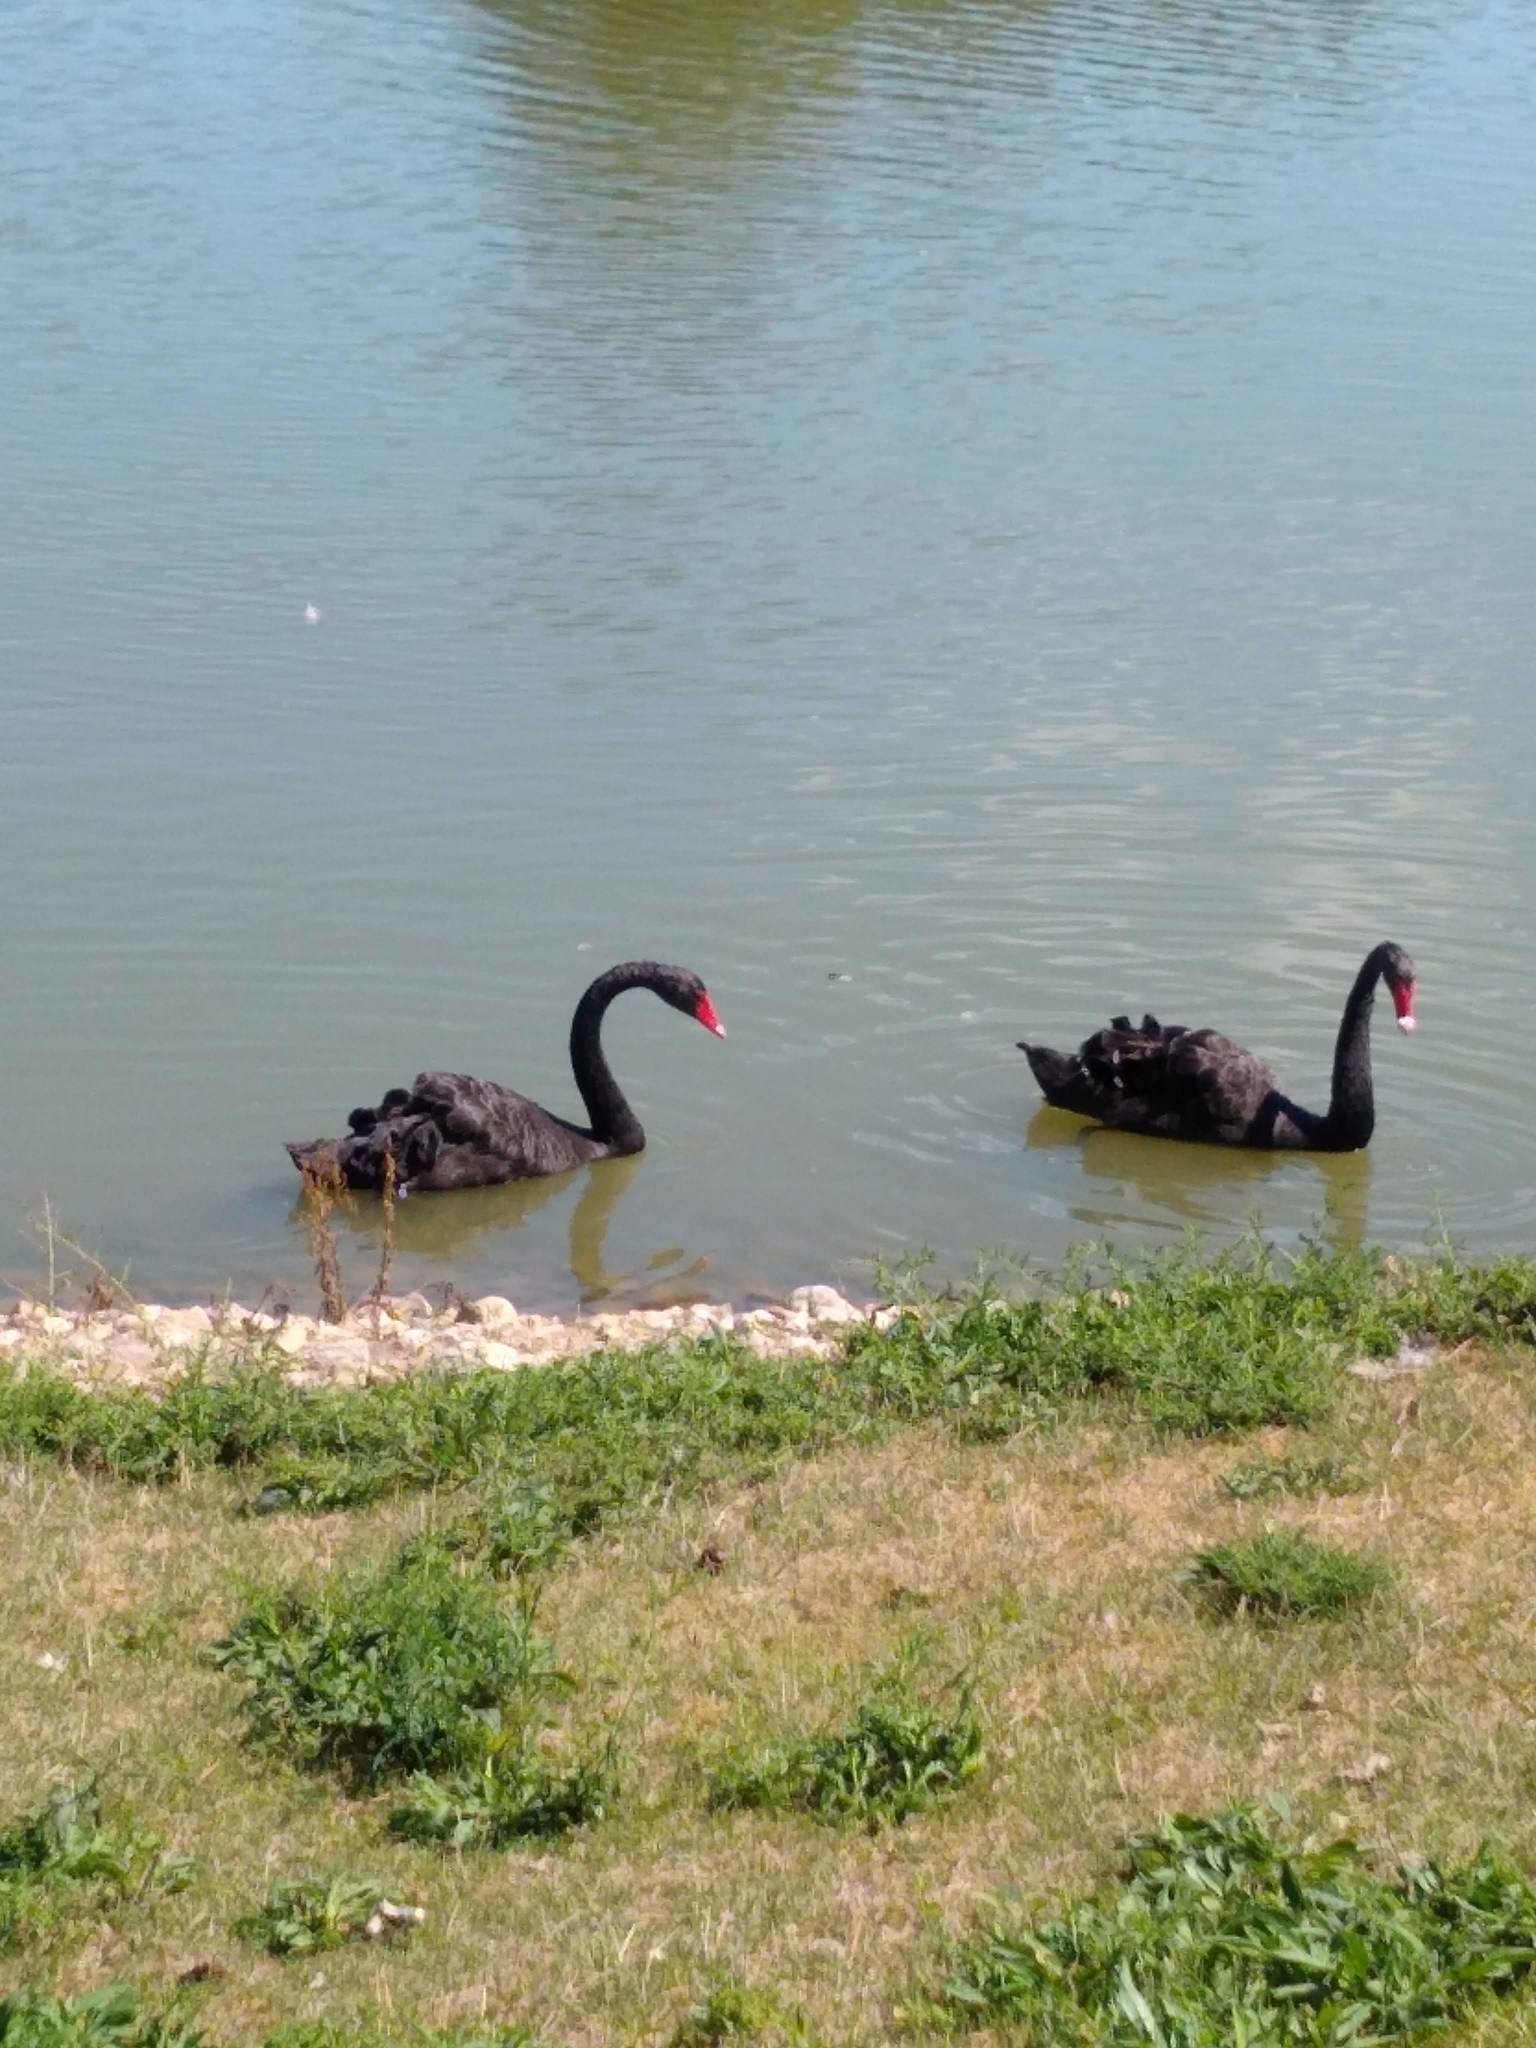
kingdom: Animalia
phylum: Chordata
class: Aves
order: Anseriformes
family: Anatidae
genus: Cygnus
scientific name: Cygnus atratus
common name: Black swan
